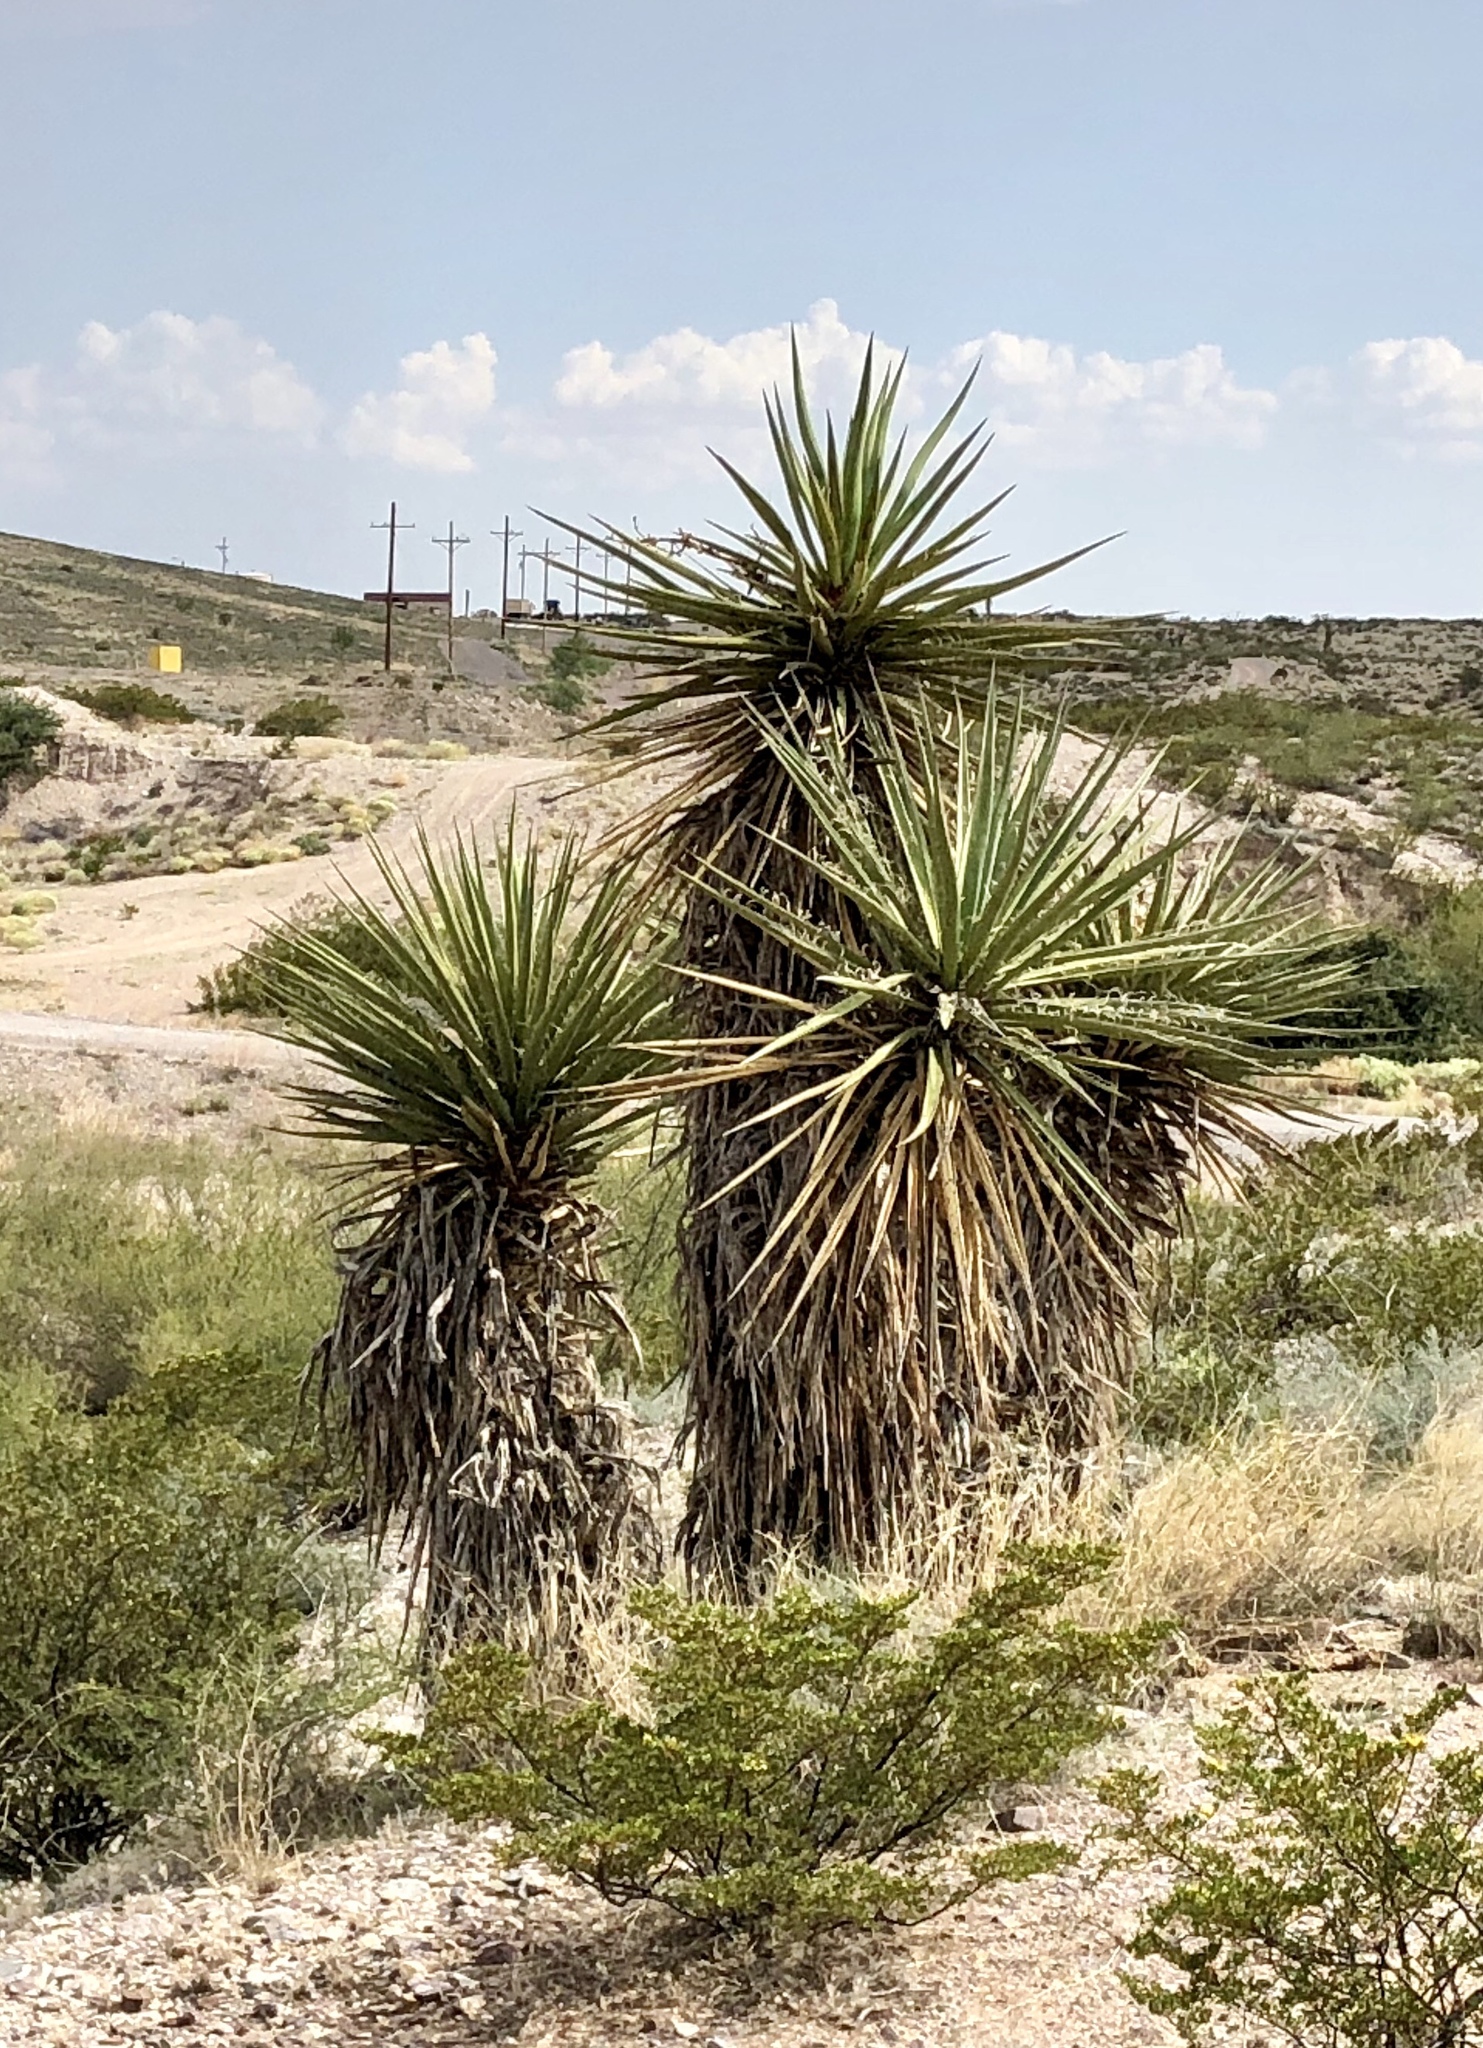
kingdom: Plantae
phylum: Tracheophyta
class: Liliopsida
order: Asparagales
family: Asparagaceae
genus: Yucca
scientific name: Yucca treculiana
